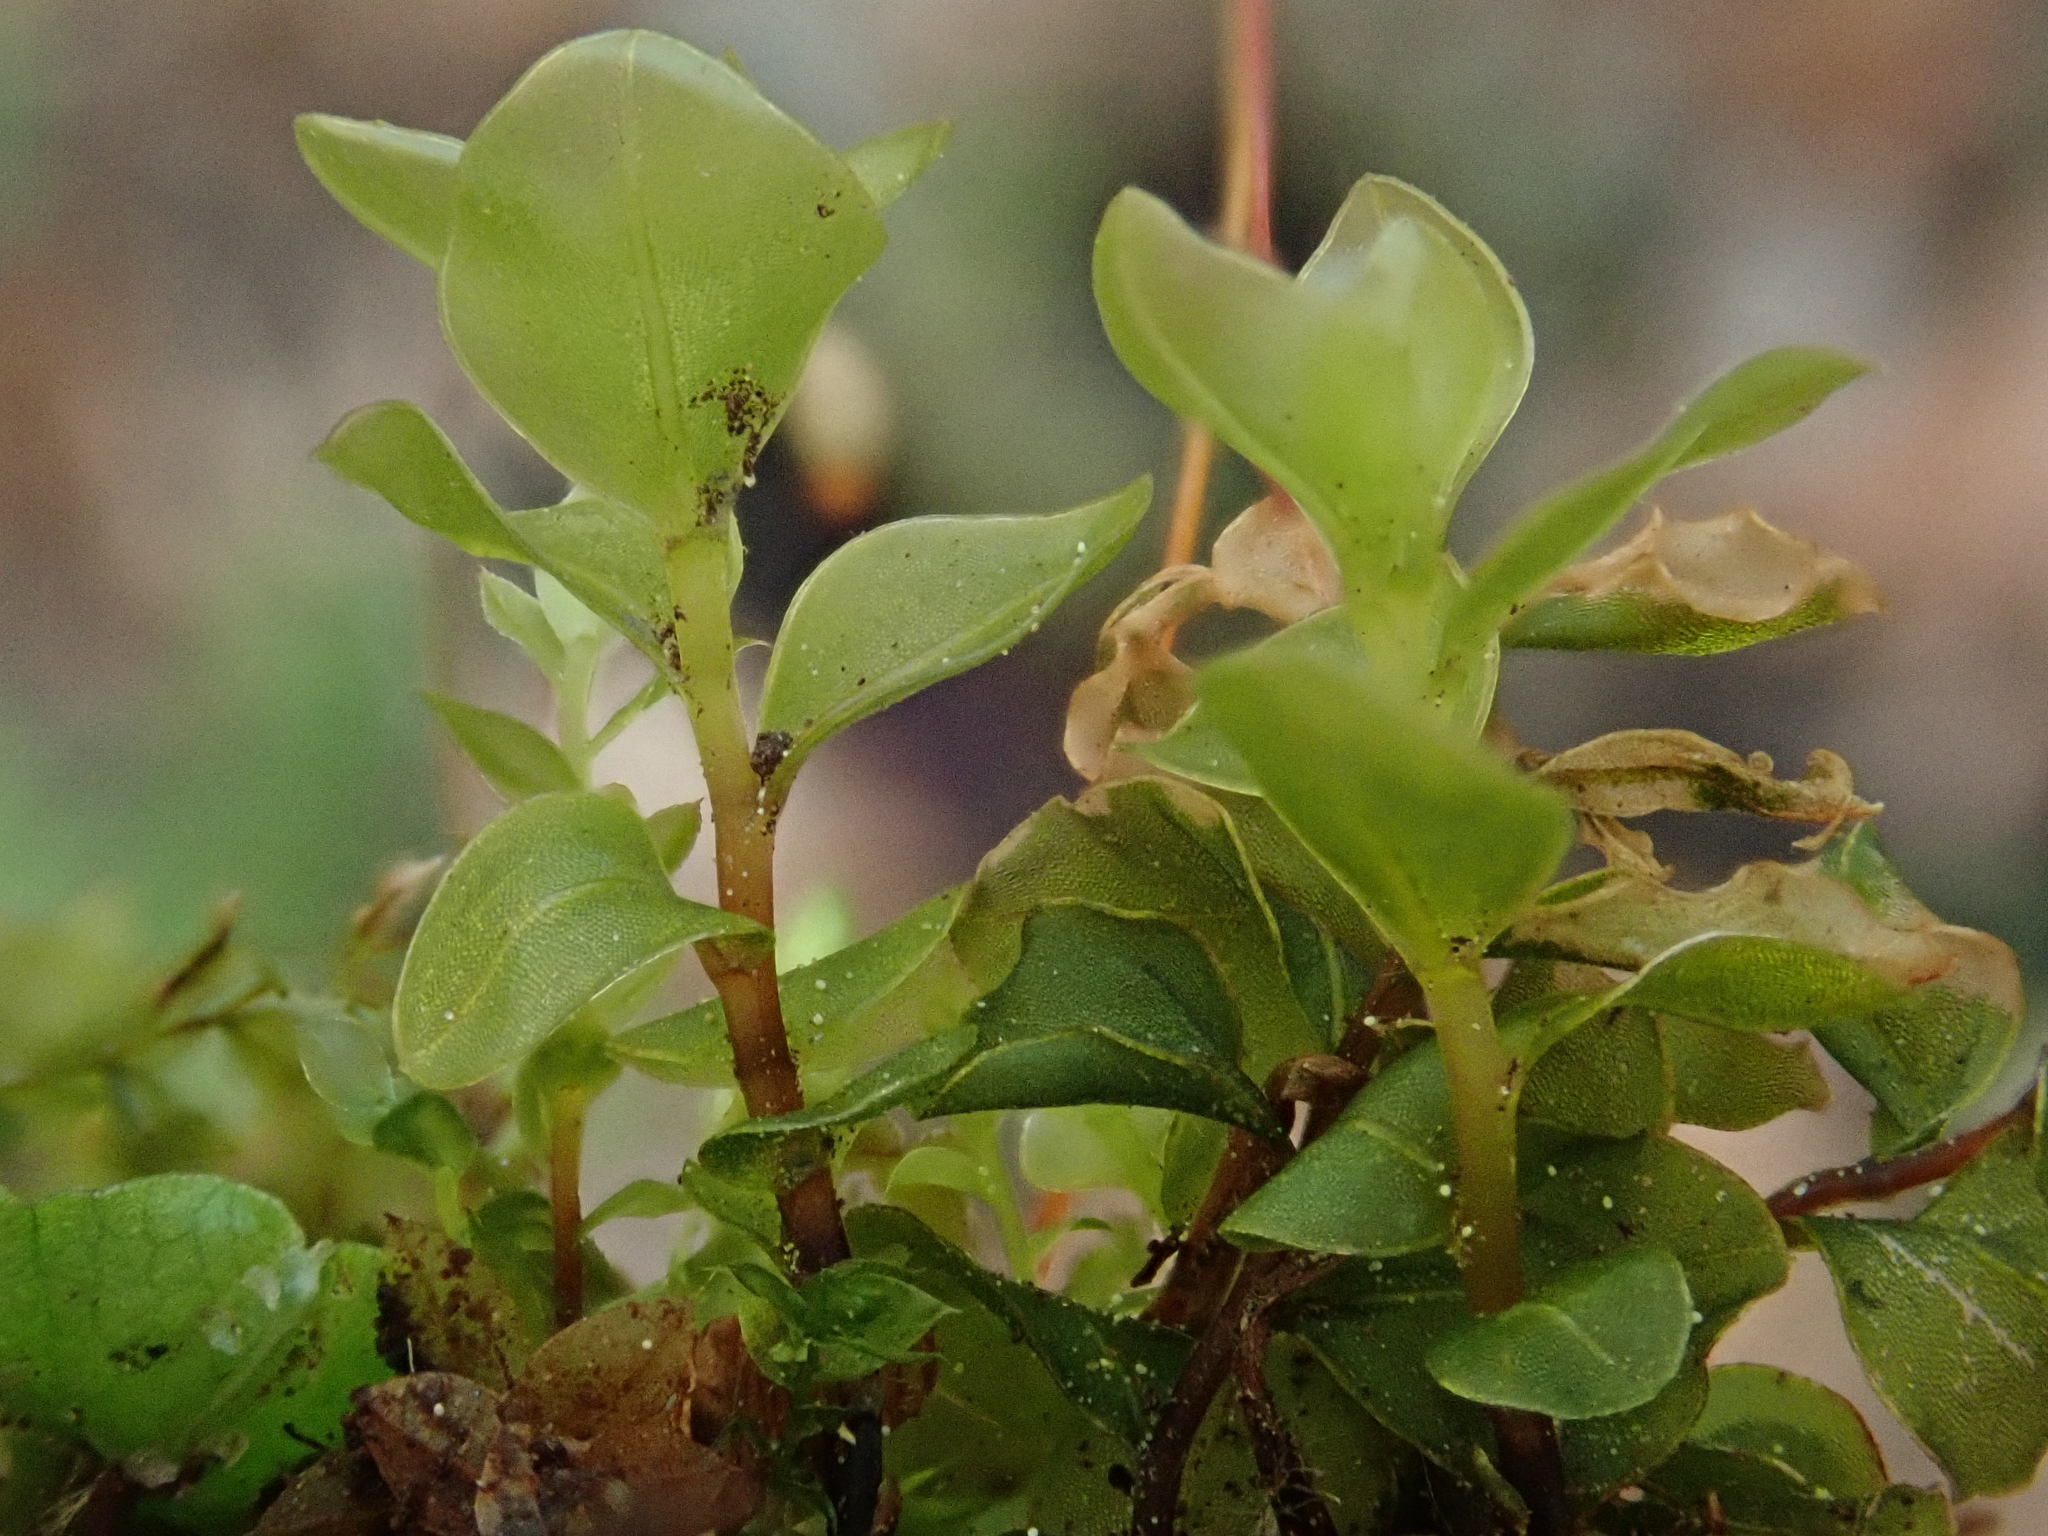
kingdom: Plantae
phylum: Bryophyta
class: Bryopsida
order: Bryales
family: Mniaceae
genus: Rhizomnium
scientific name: Rhizomnium punctatum
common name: Dotted leafy moss
